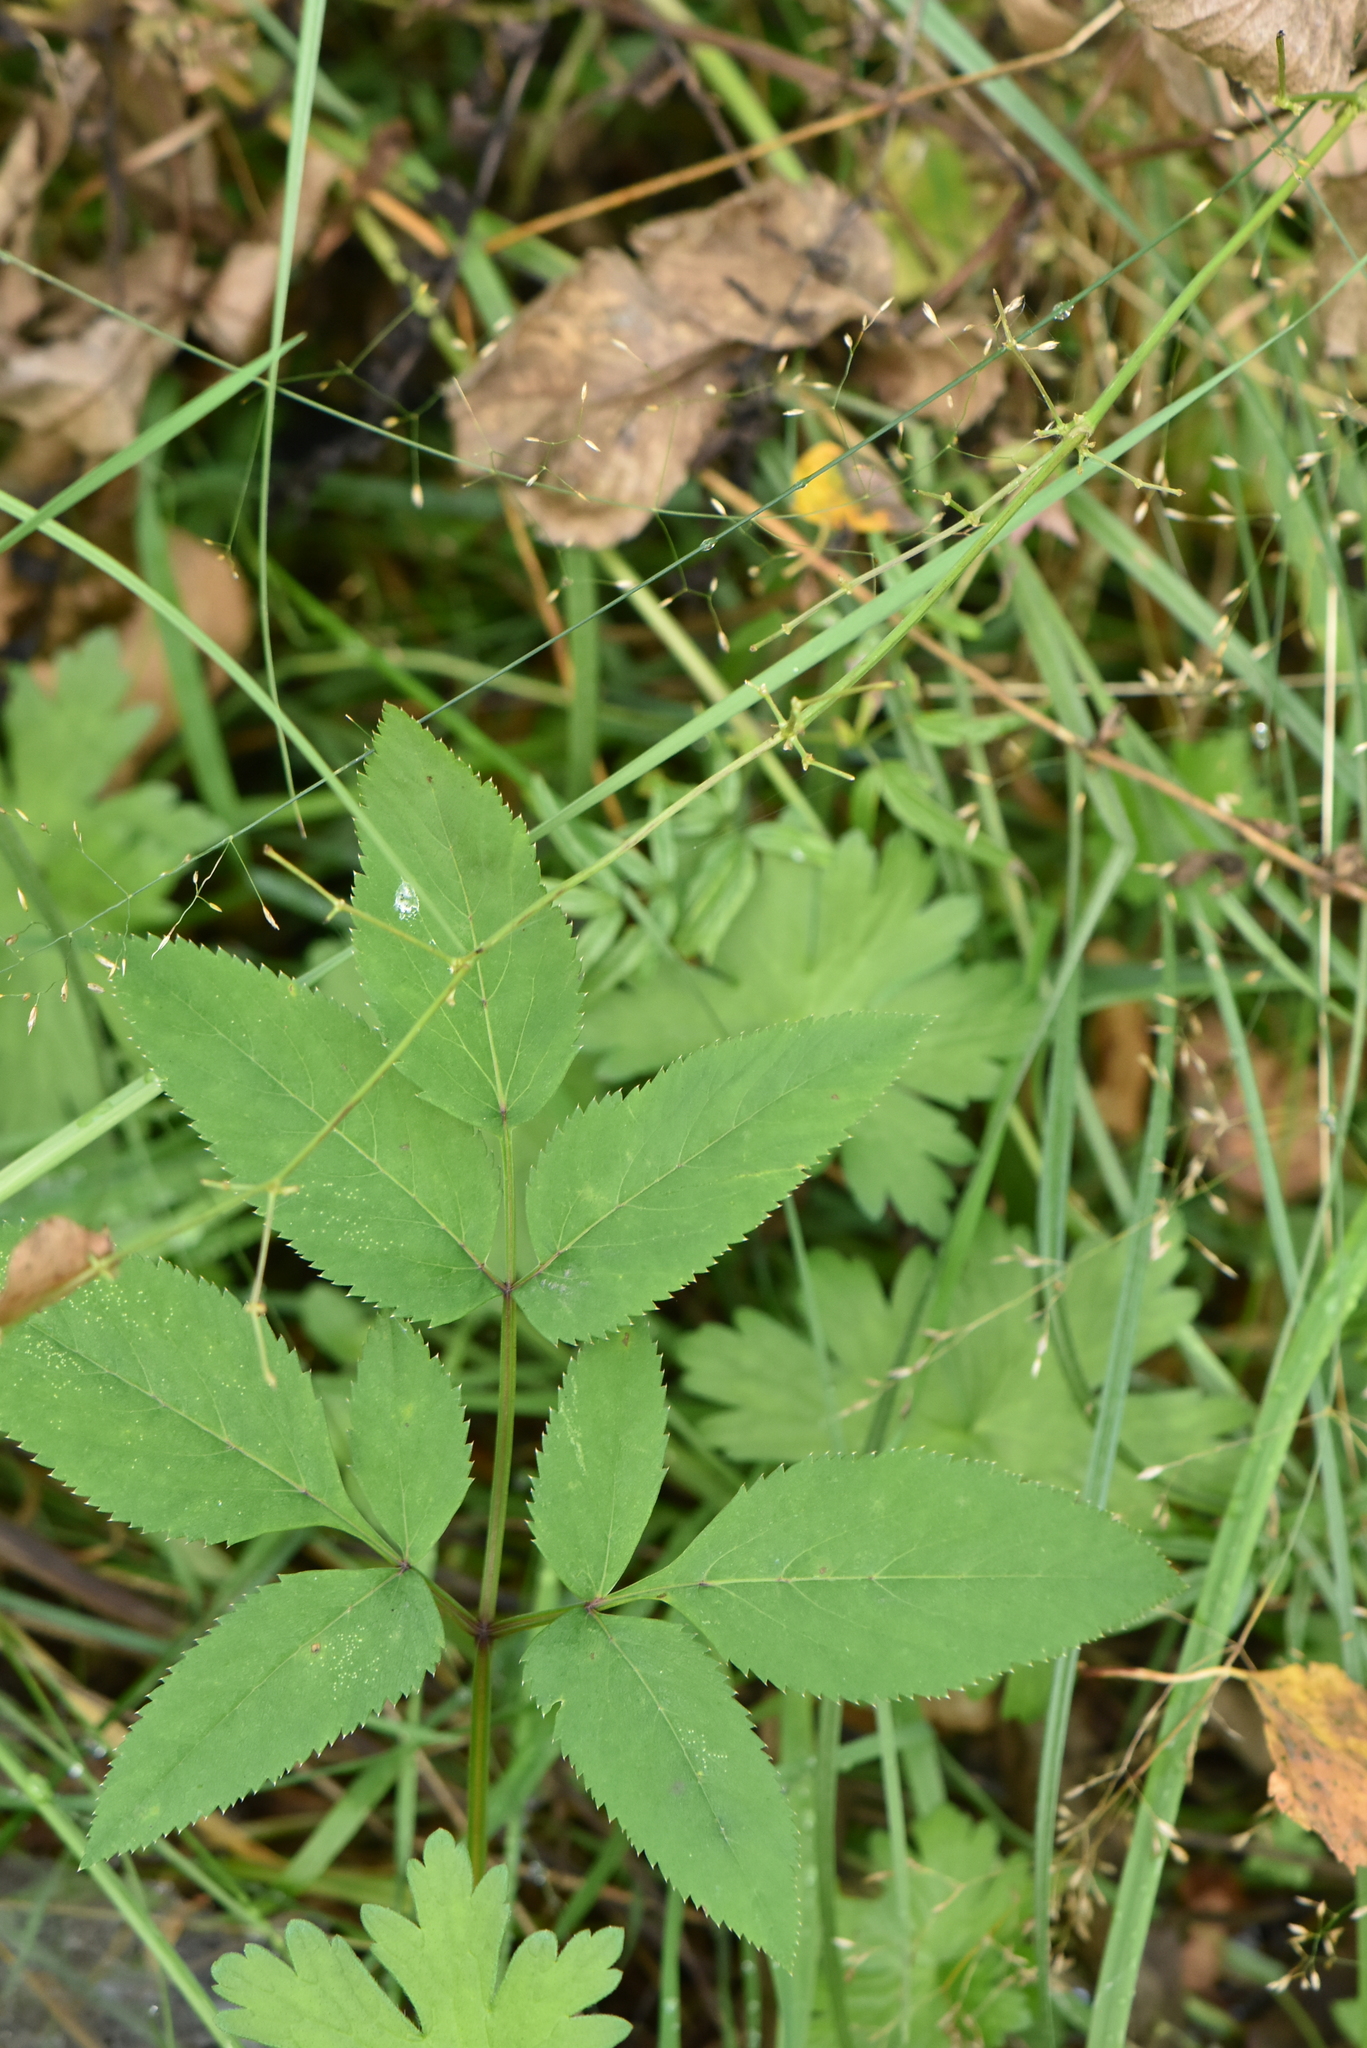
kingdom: Plantae
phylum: Tracheophyta
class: Magnoliopsida
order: Apiales
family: Apiaceae
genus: Aegopodium
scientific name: Aegopodium podagraria
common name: Ground-elder
